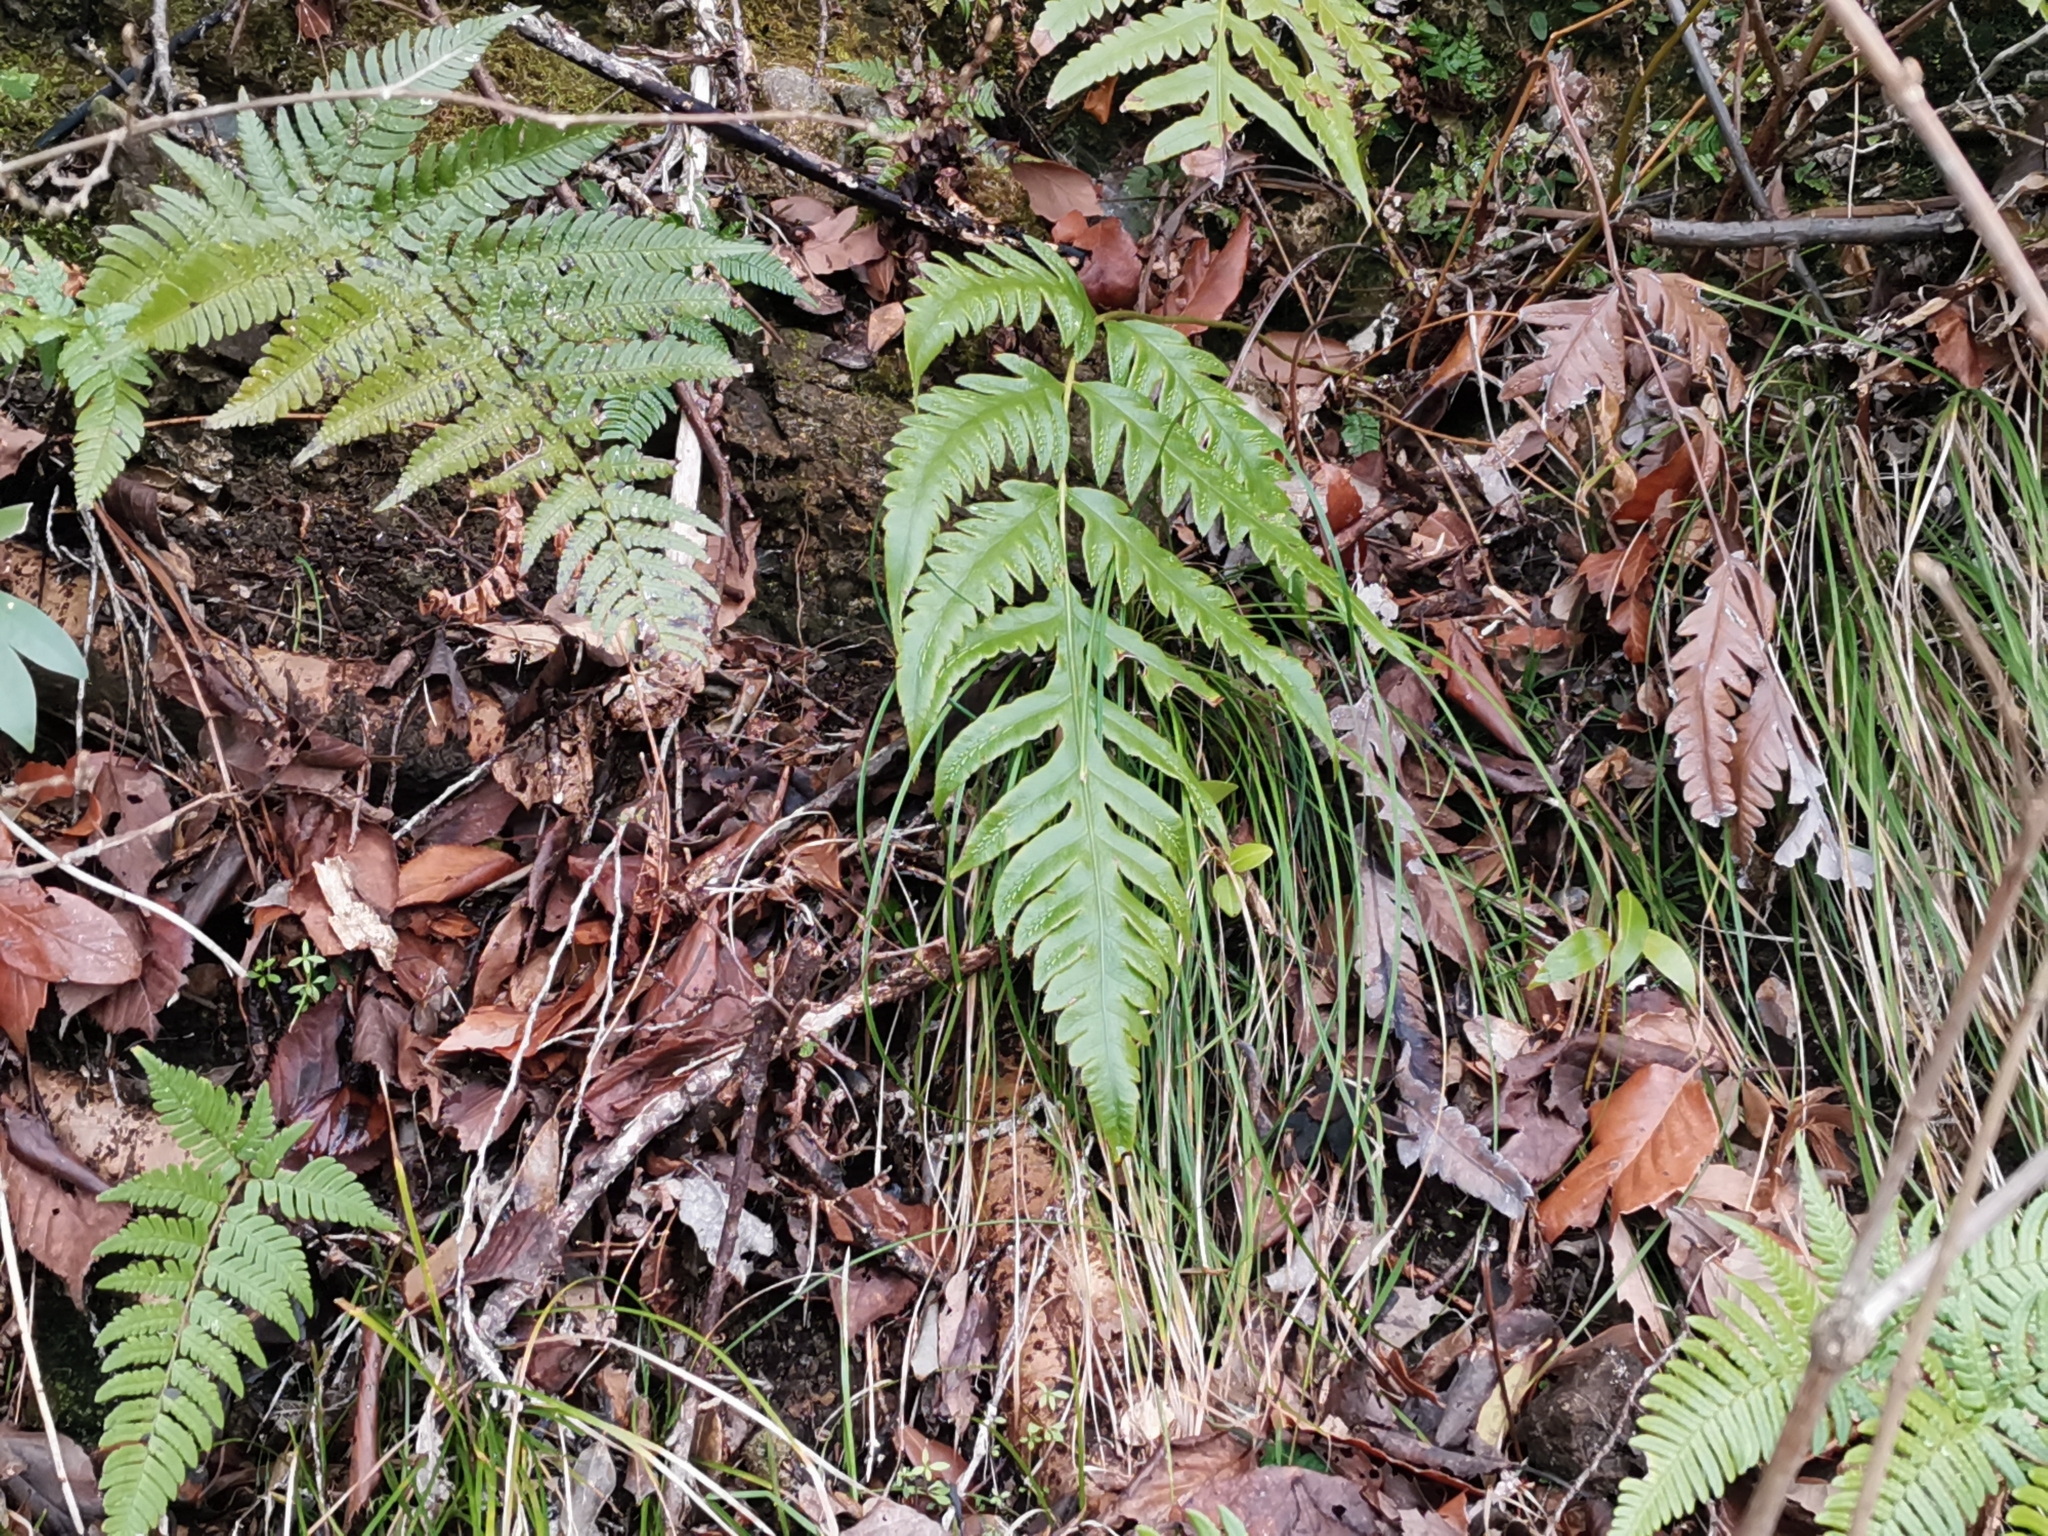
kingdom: Plantae
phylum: Tracheophyta
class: Polypodiopsida
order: Polypodiales
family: Blechnaceae
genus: Woodwardia
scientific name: Woodwardia orientalis
